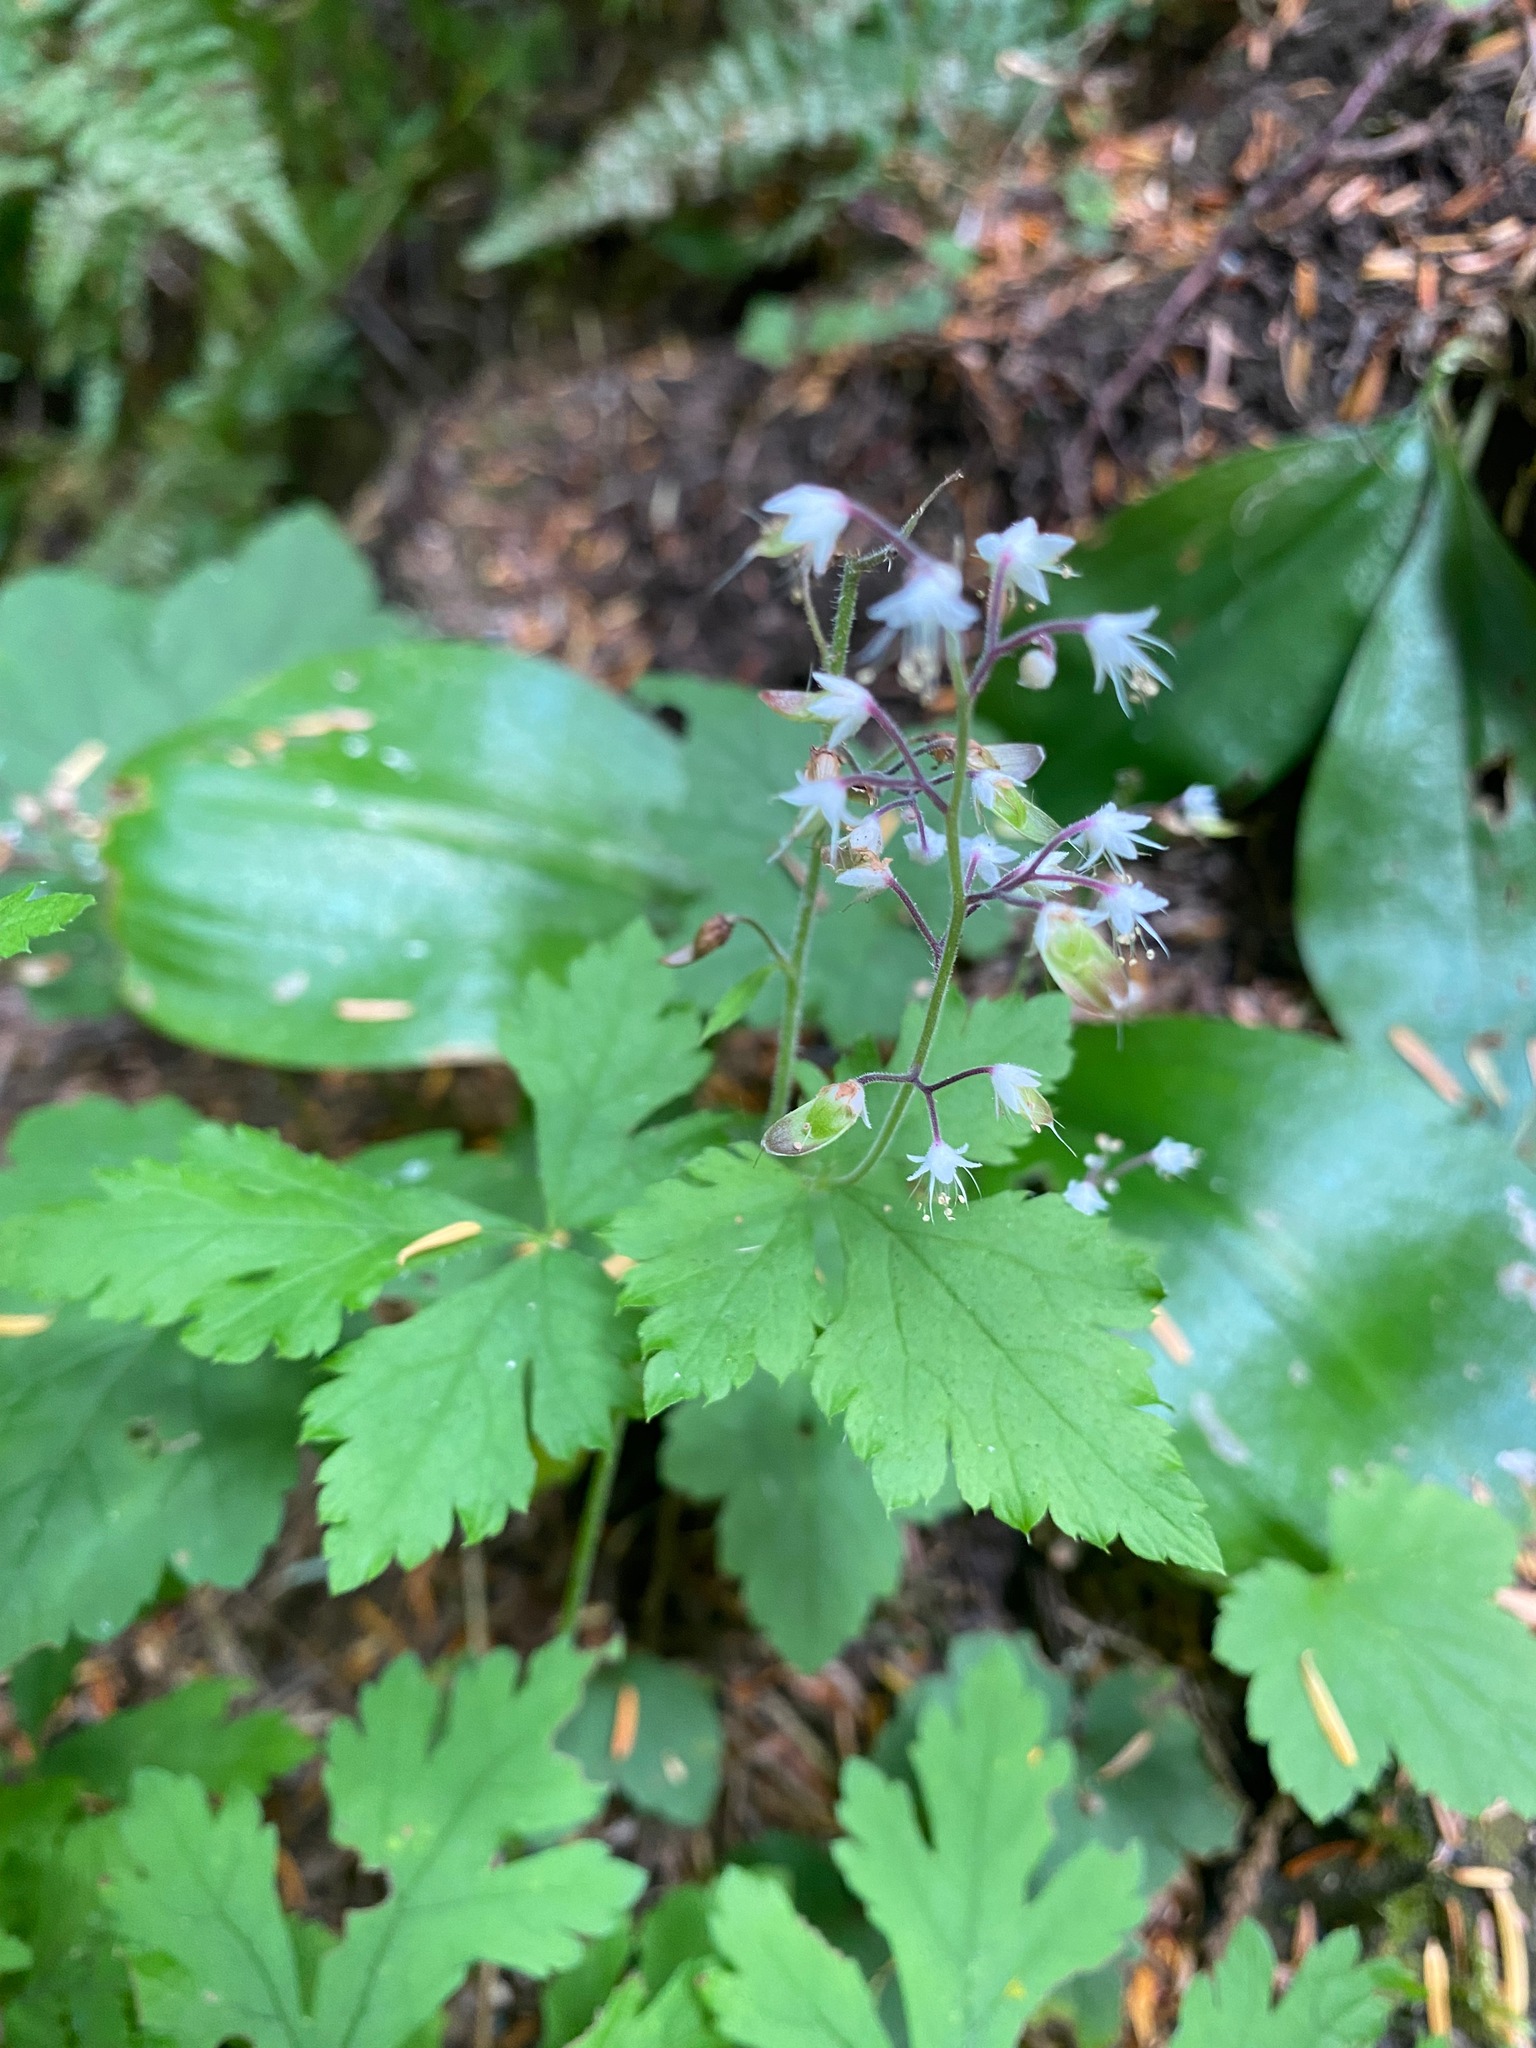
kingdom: Plantae
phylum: Tracheophyta
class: Magnoliopsida
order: Saxifragales
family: Saxifragaceae
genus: Tiarella
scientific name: Tiarella trifoliata
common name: Sugar-scoop
